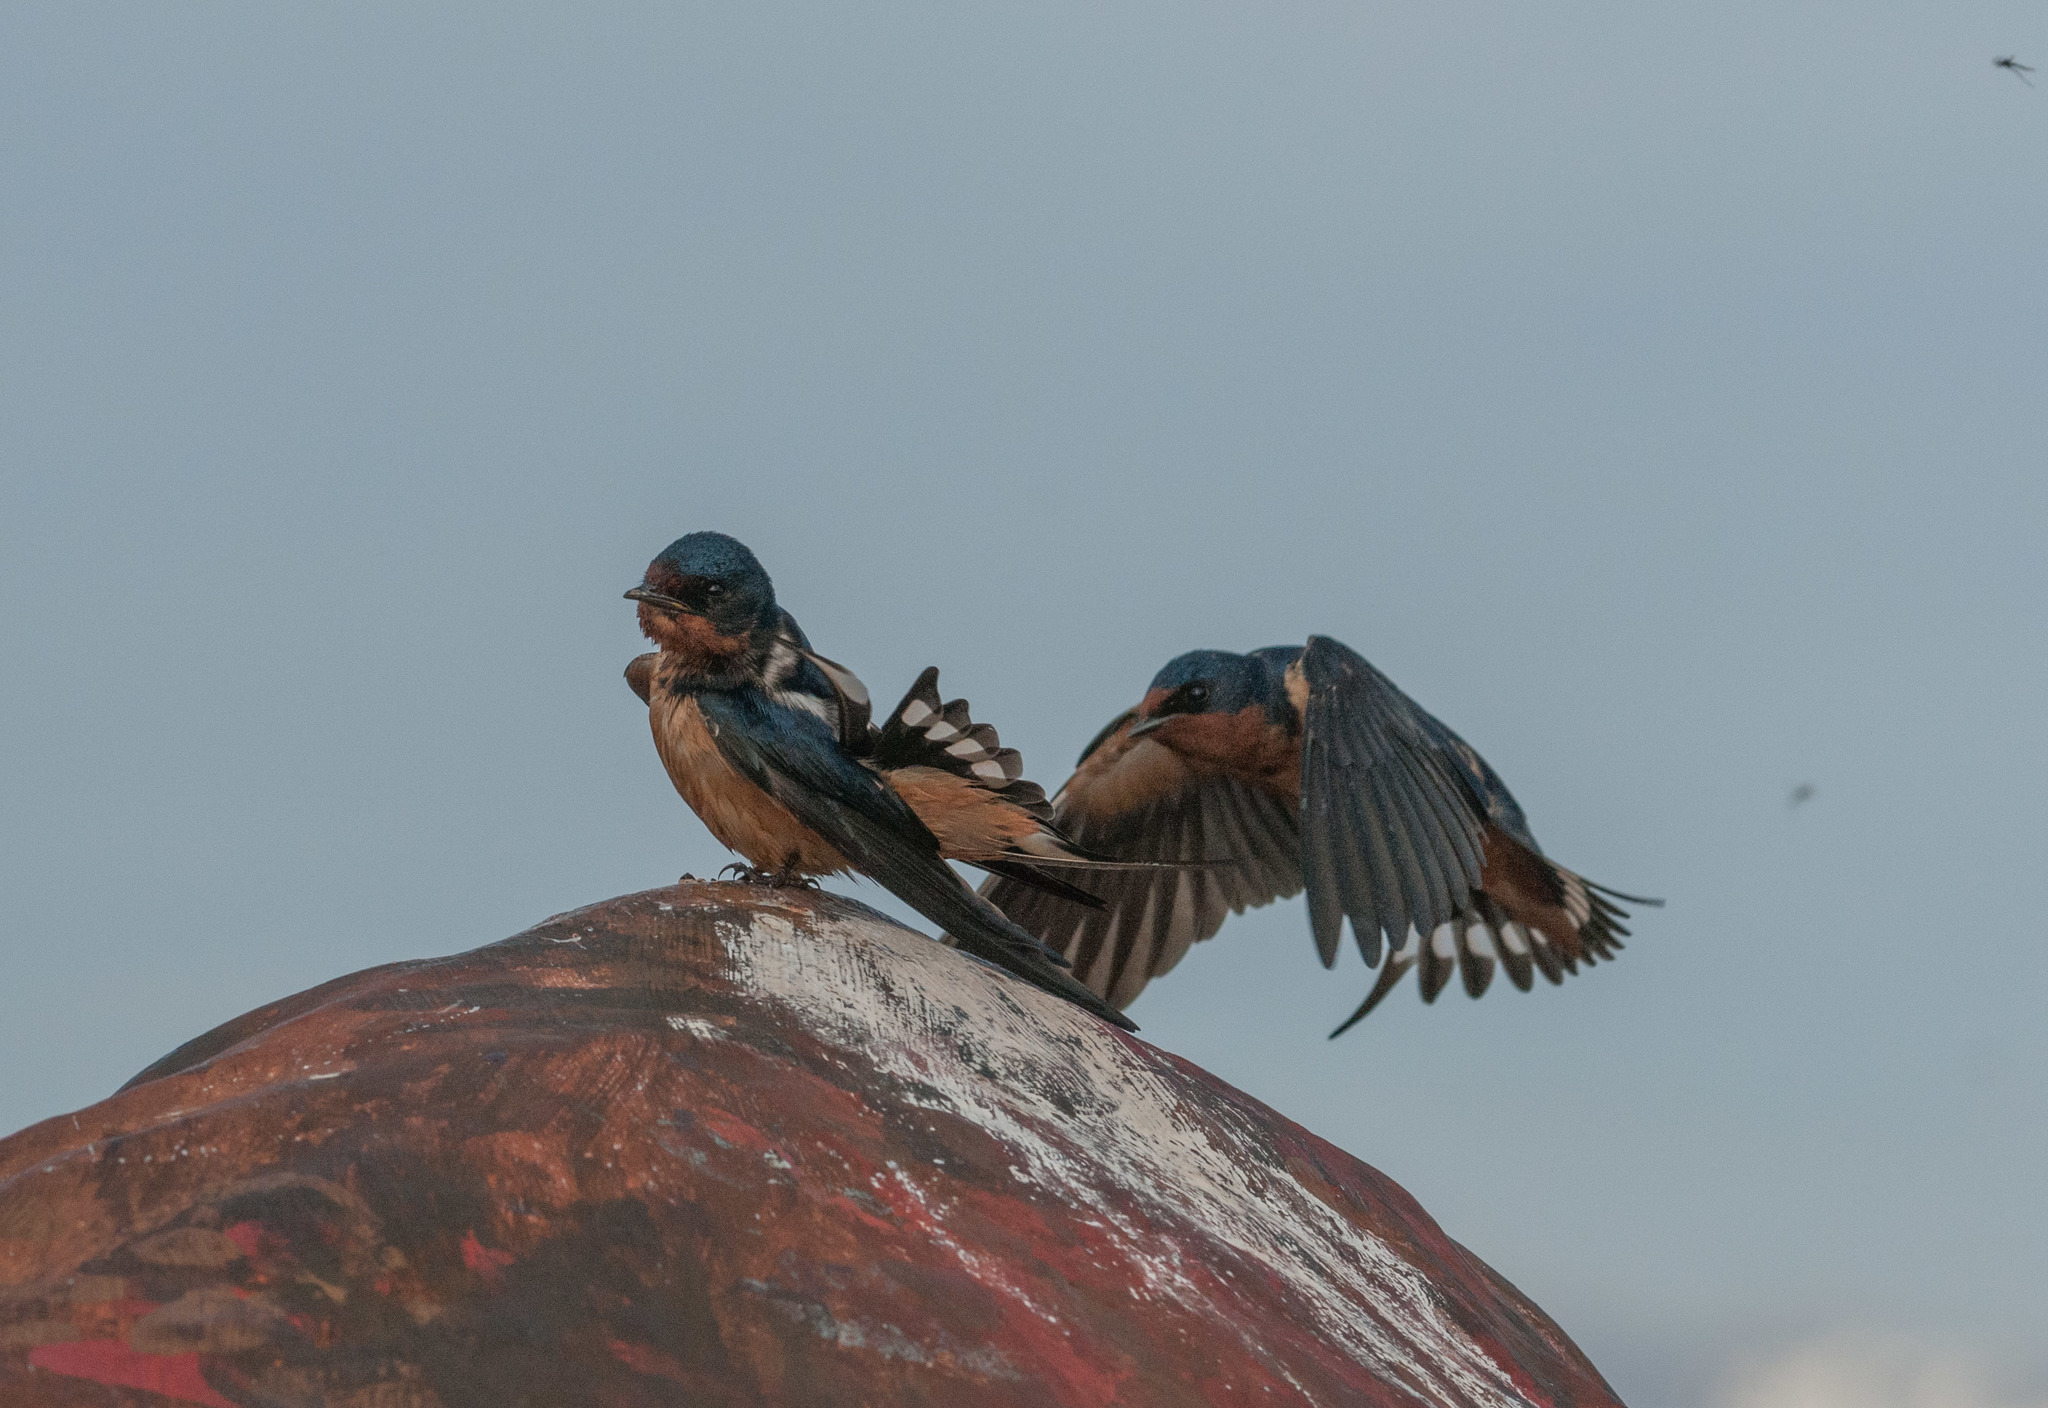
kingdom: Animalia
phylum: Chordata
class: Aves
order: Passeriformes
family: Hirundinidae
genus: Hirundo
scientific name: Hirundo rustica
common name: Barn swallow
